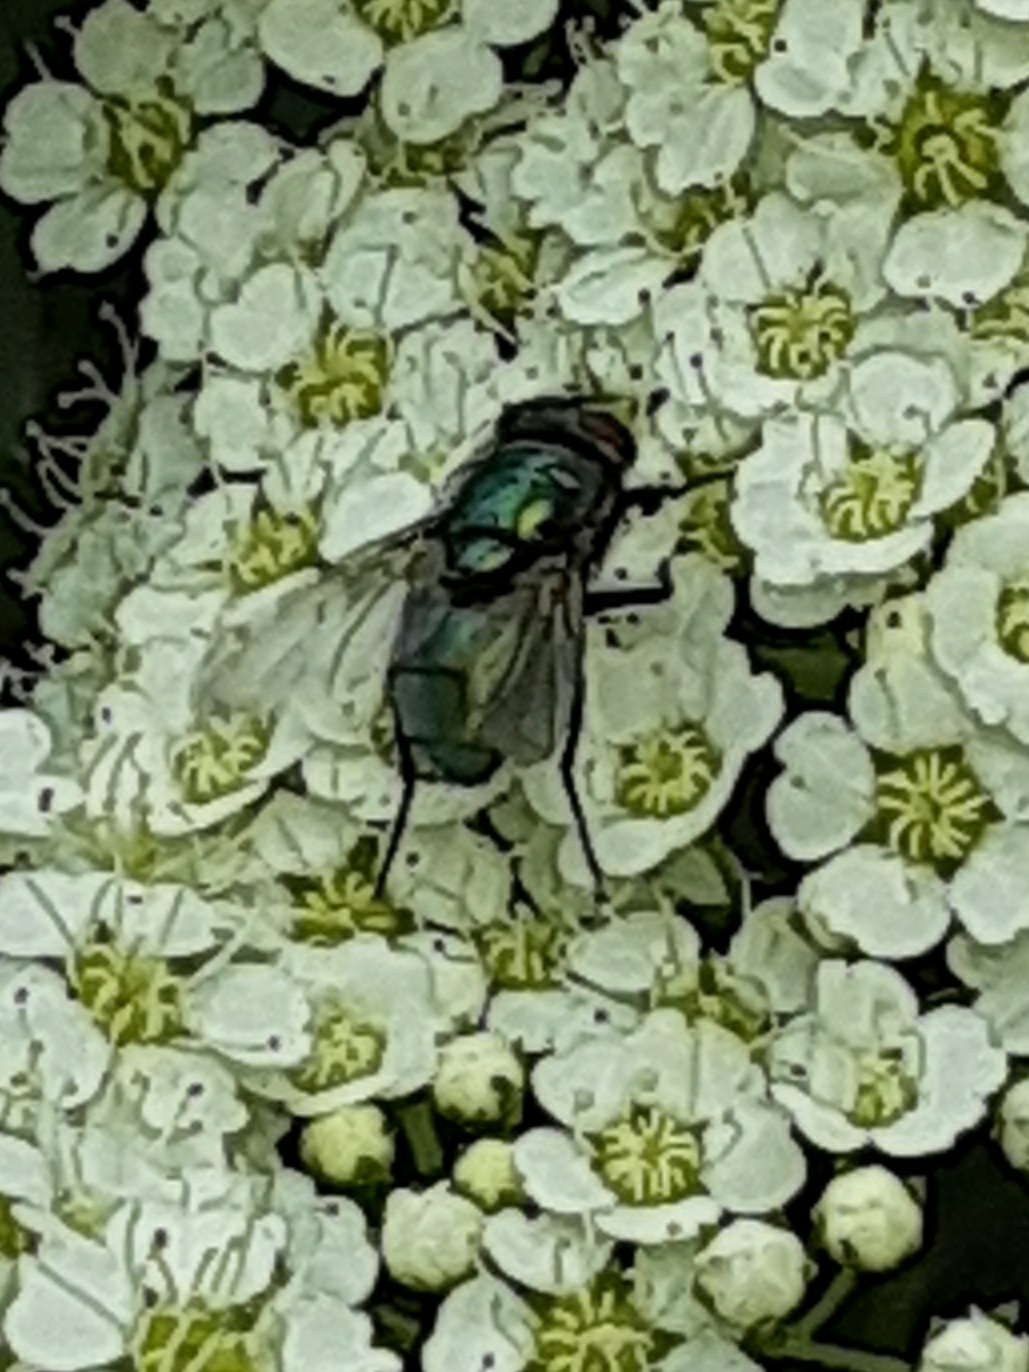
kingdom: Animalia
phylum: Arthropoda
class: Insecta
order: Diptera
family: Calliphoridae
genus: Lucilia
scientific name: Lucilia
